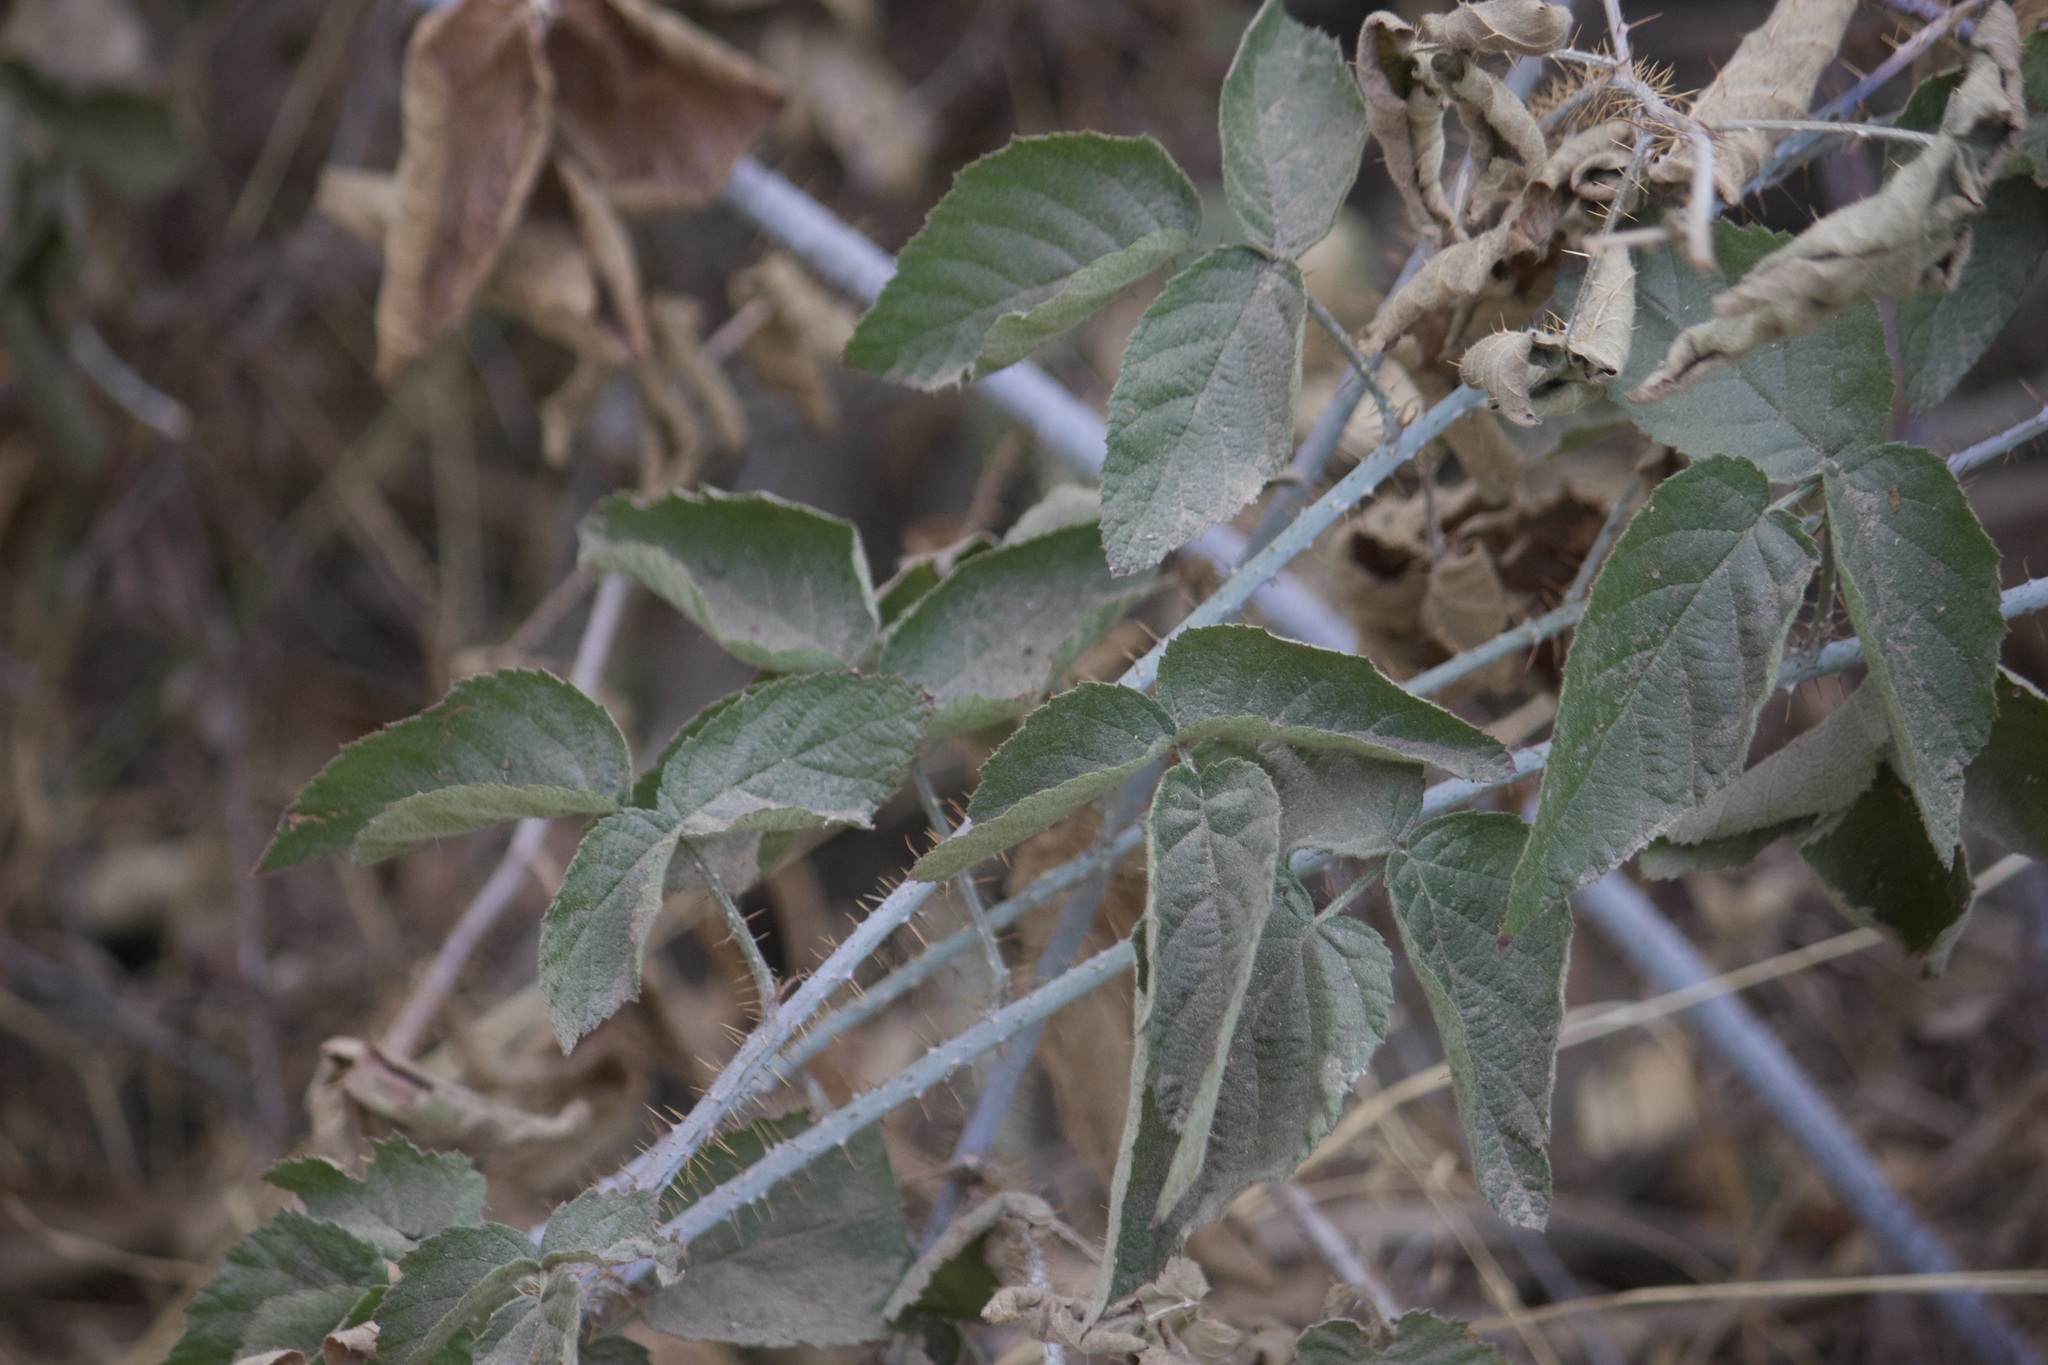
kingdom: Plantae
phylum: Tracheophyta
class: Magnoliopsida
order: Rosales
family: Rosaceae
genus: Rubus
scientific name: Rubus ursinus
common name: Pacific blackberry
